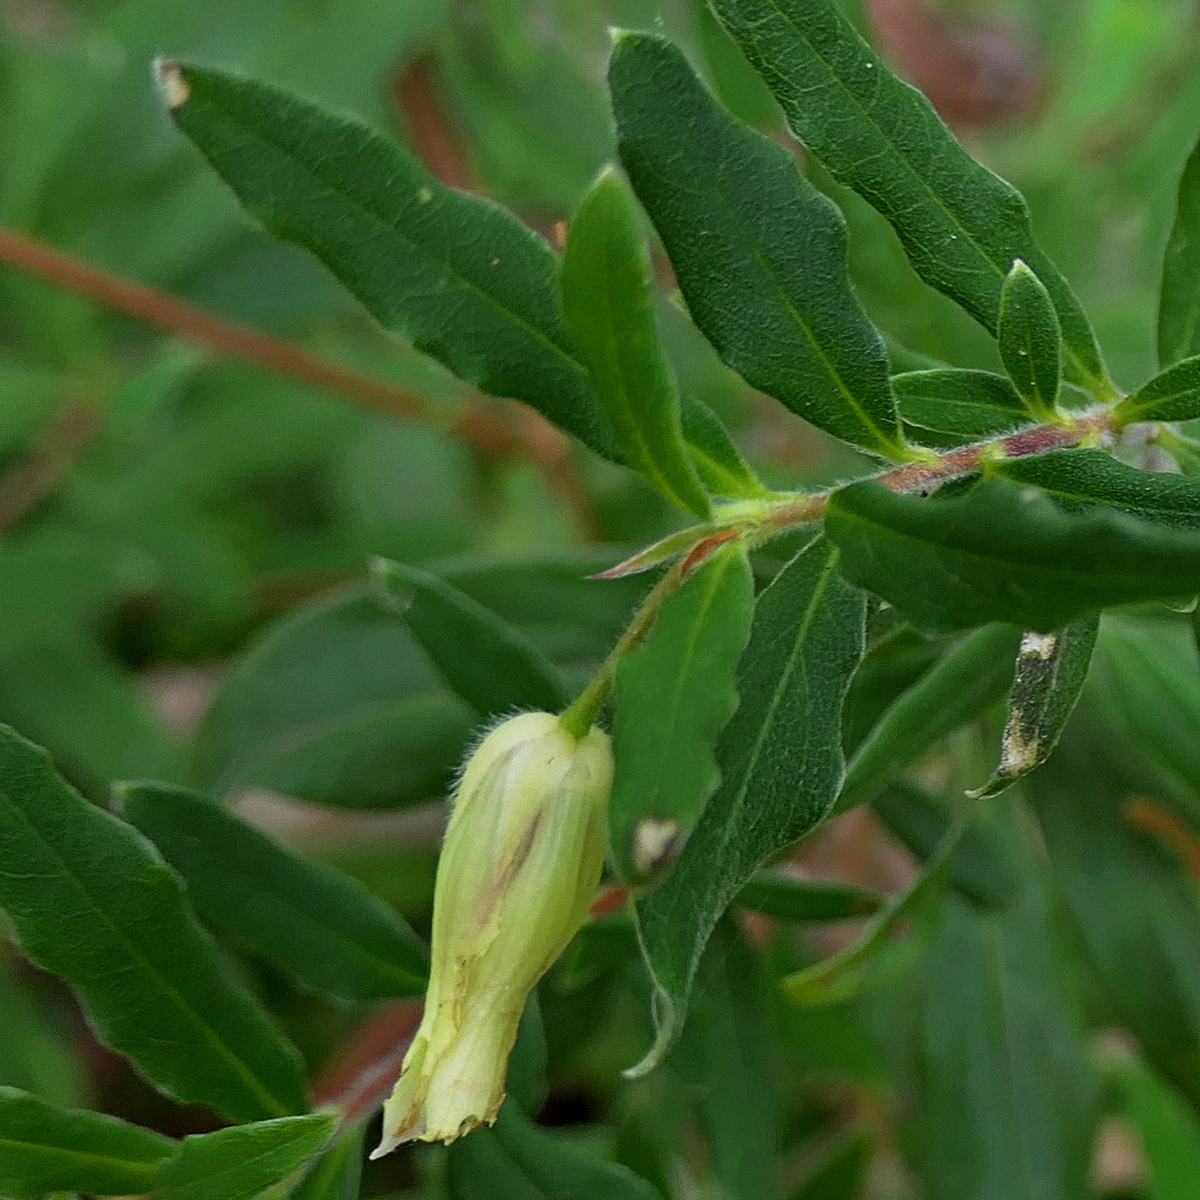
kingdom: Plantae
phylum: Tracheophyta
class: Magnoliopsida
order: Apiales
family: Pittosporaceae
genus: Billardiera
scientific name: Billardiera mutabilis
